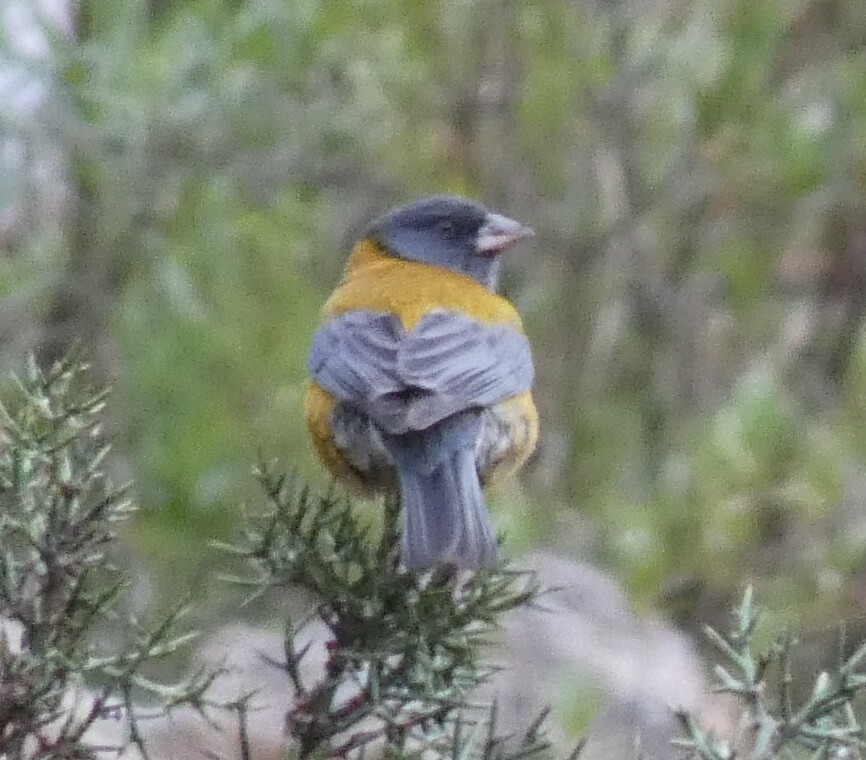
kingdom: Animalia
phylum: Chordata
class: Aves
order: Passeriformes
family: Thraupidae
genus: Phrygilus
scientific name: Phrygilus punensis
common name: Peruvian sierra finch
